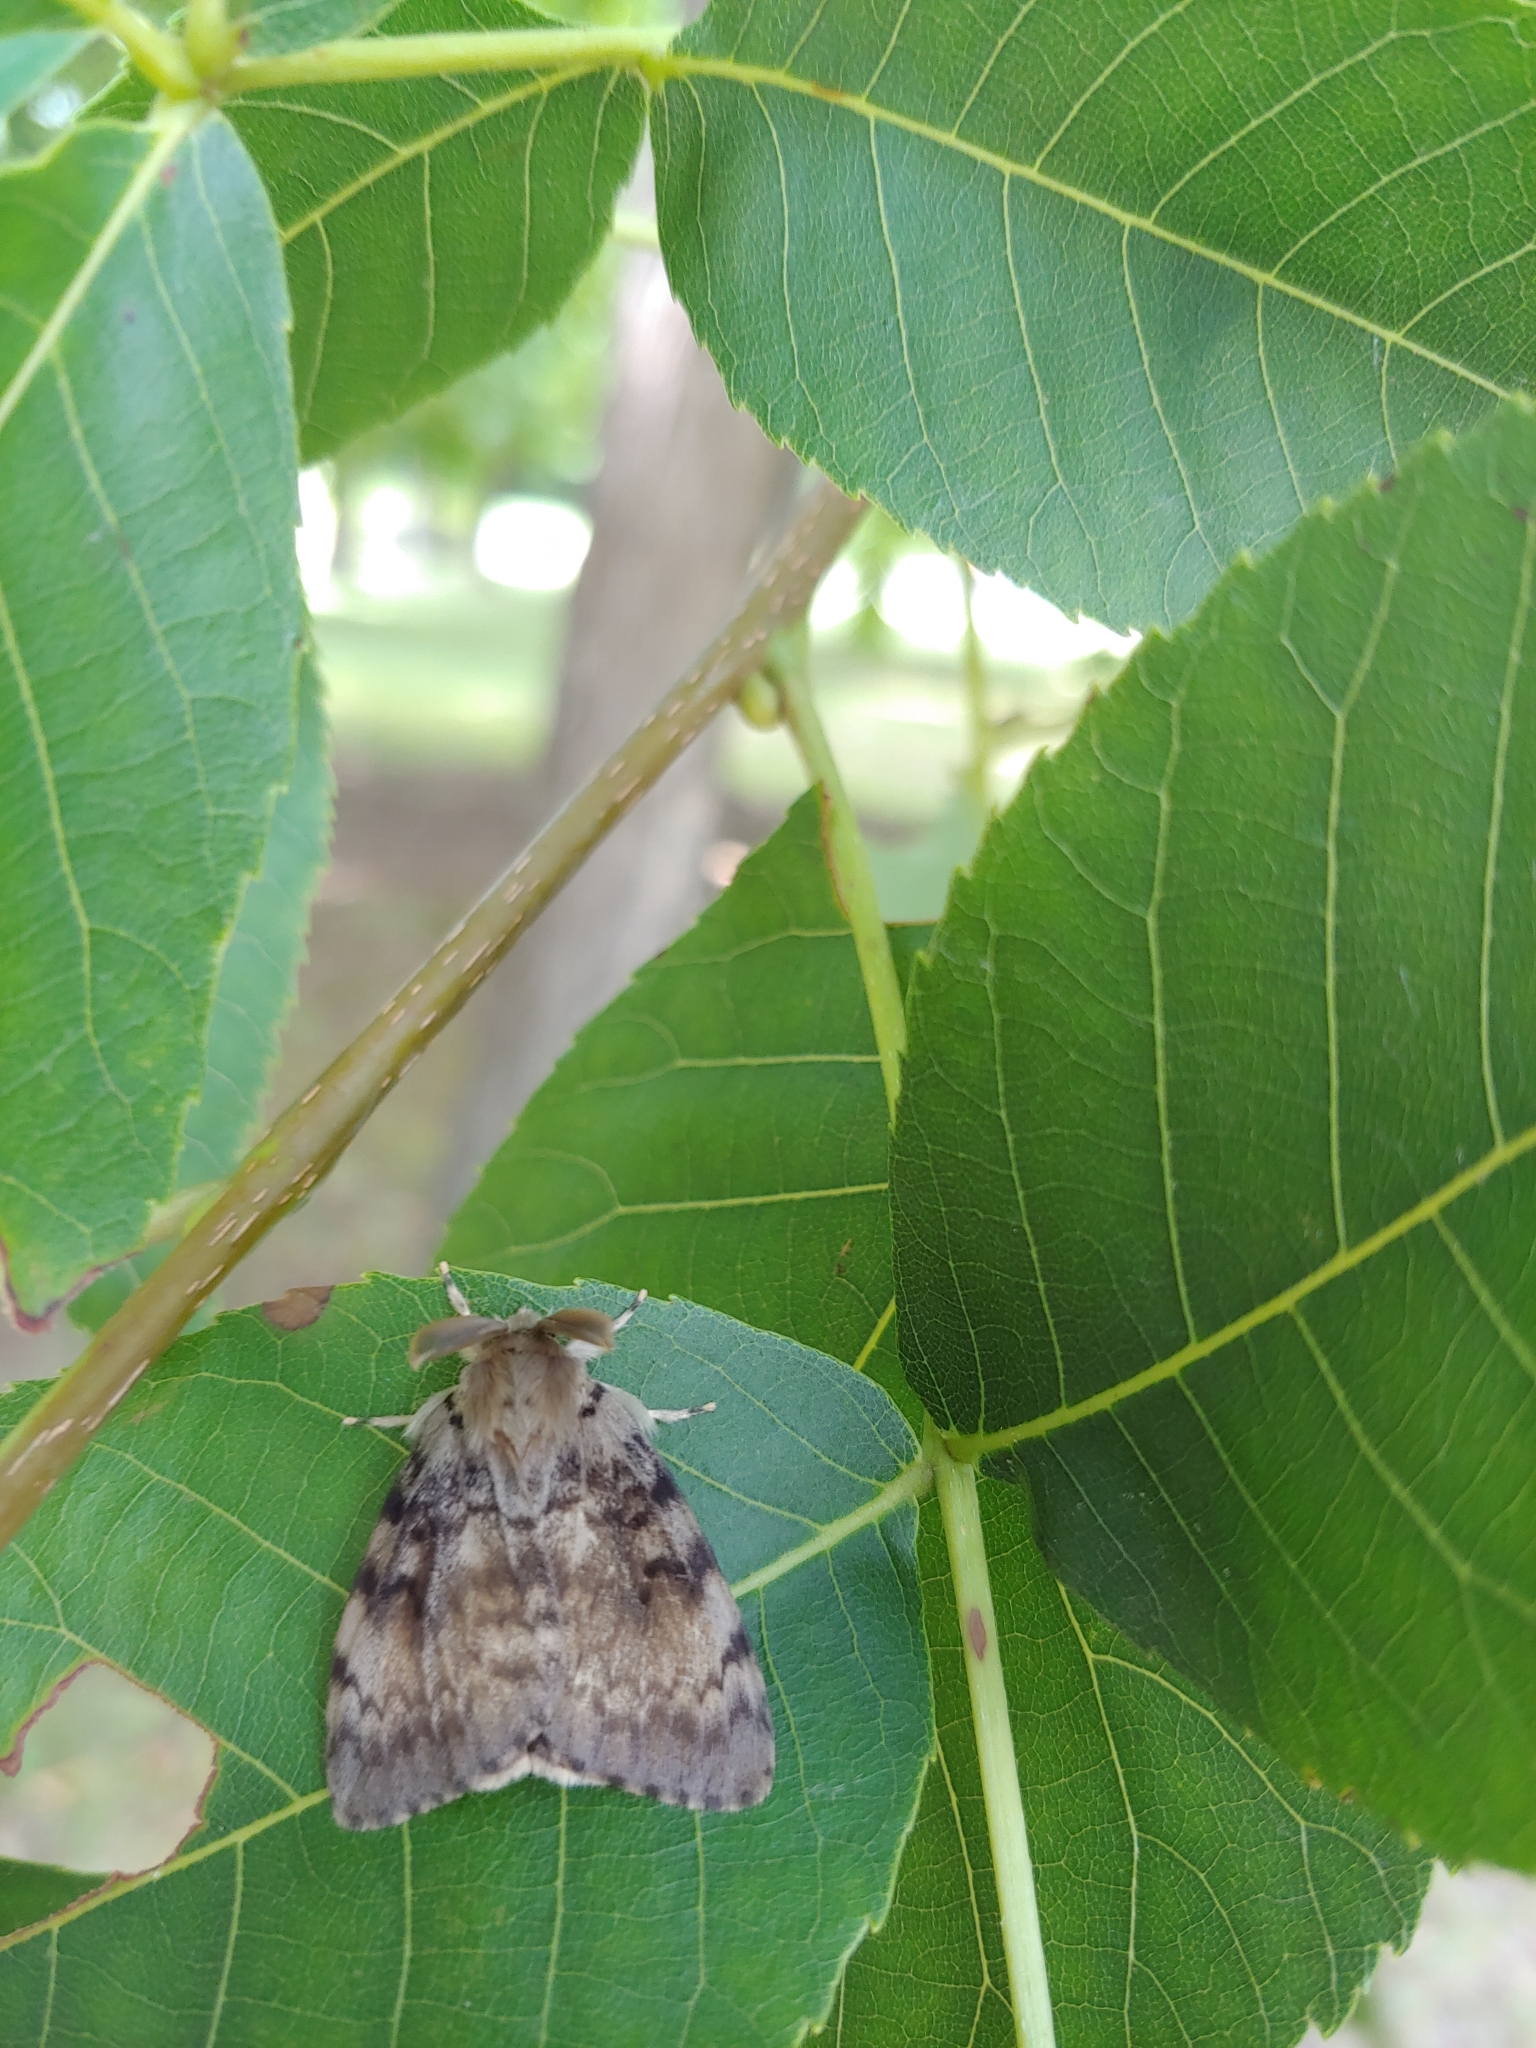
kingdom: Animalia
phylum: Arthropoda
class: Insecta
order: Lepidoptera
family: Erebidae
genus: Lymantria
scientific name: Lymantria dispar
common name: Gypsy moth
